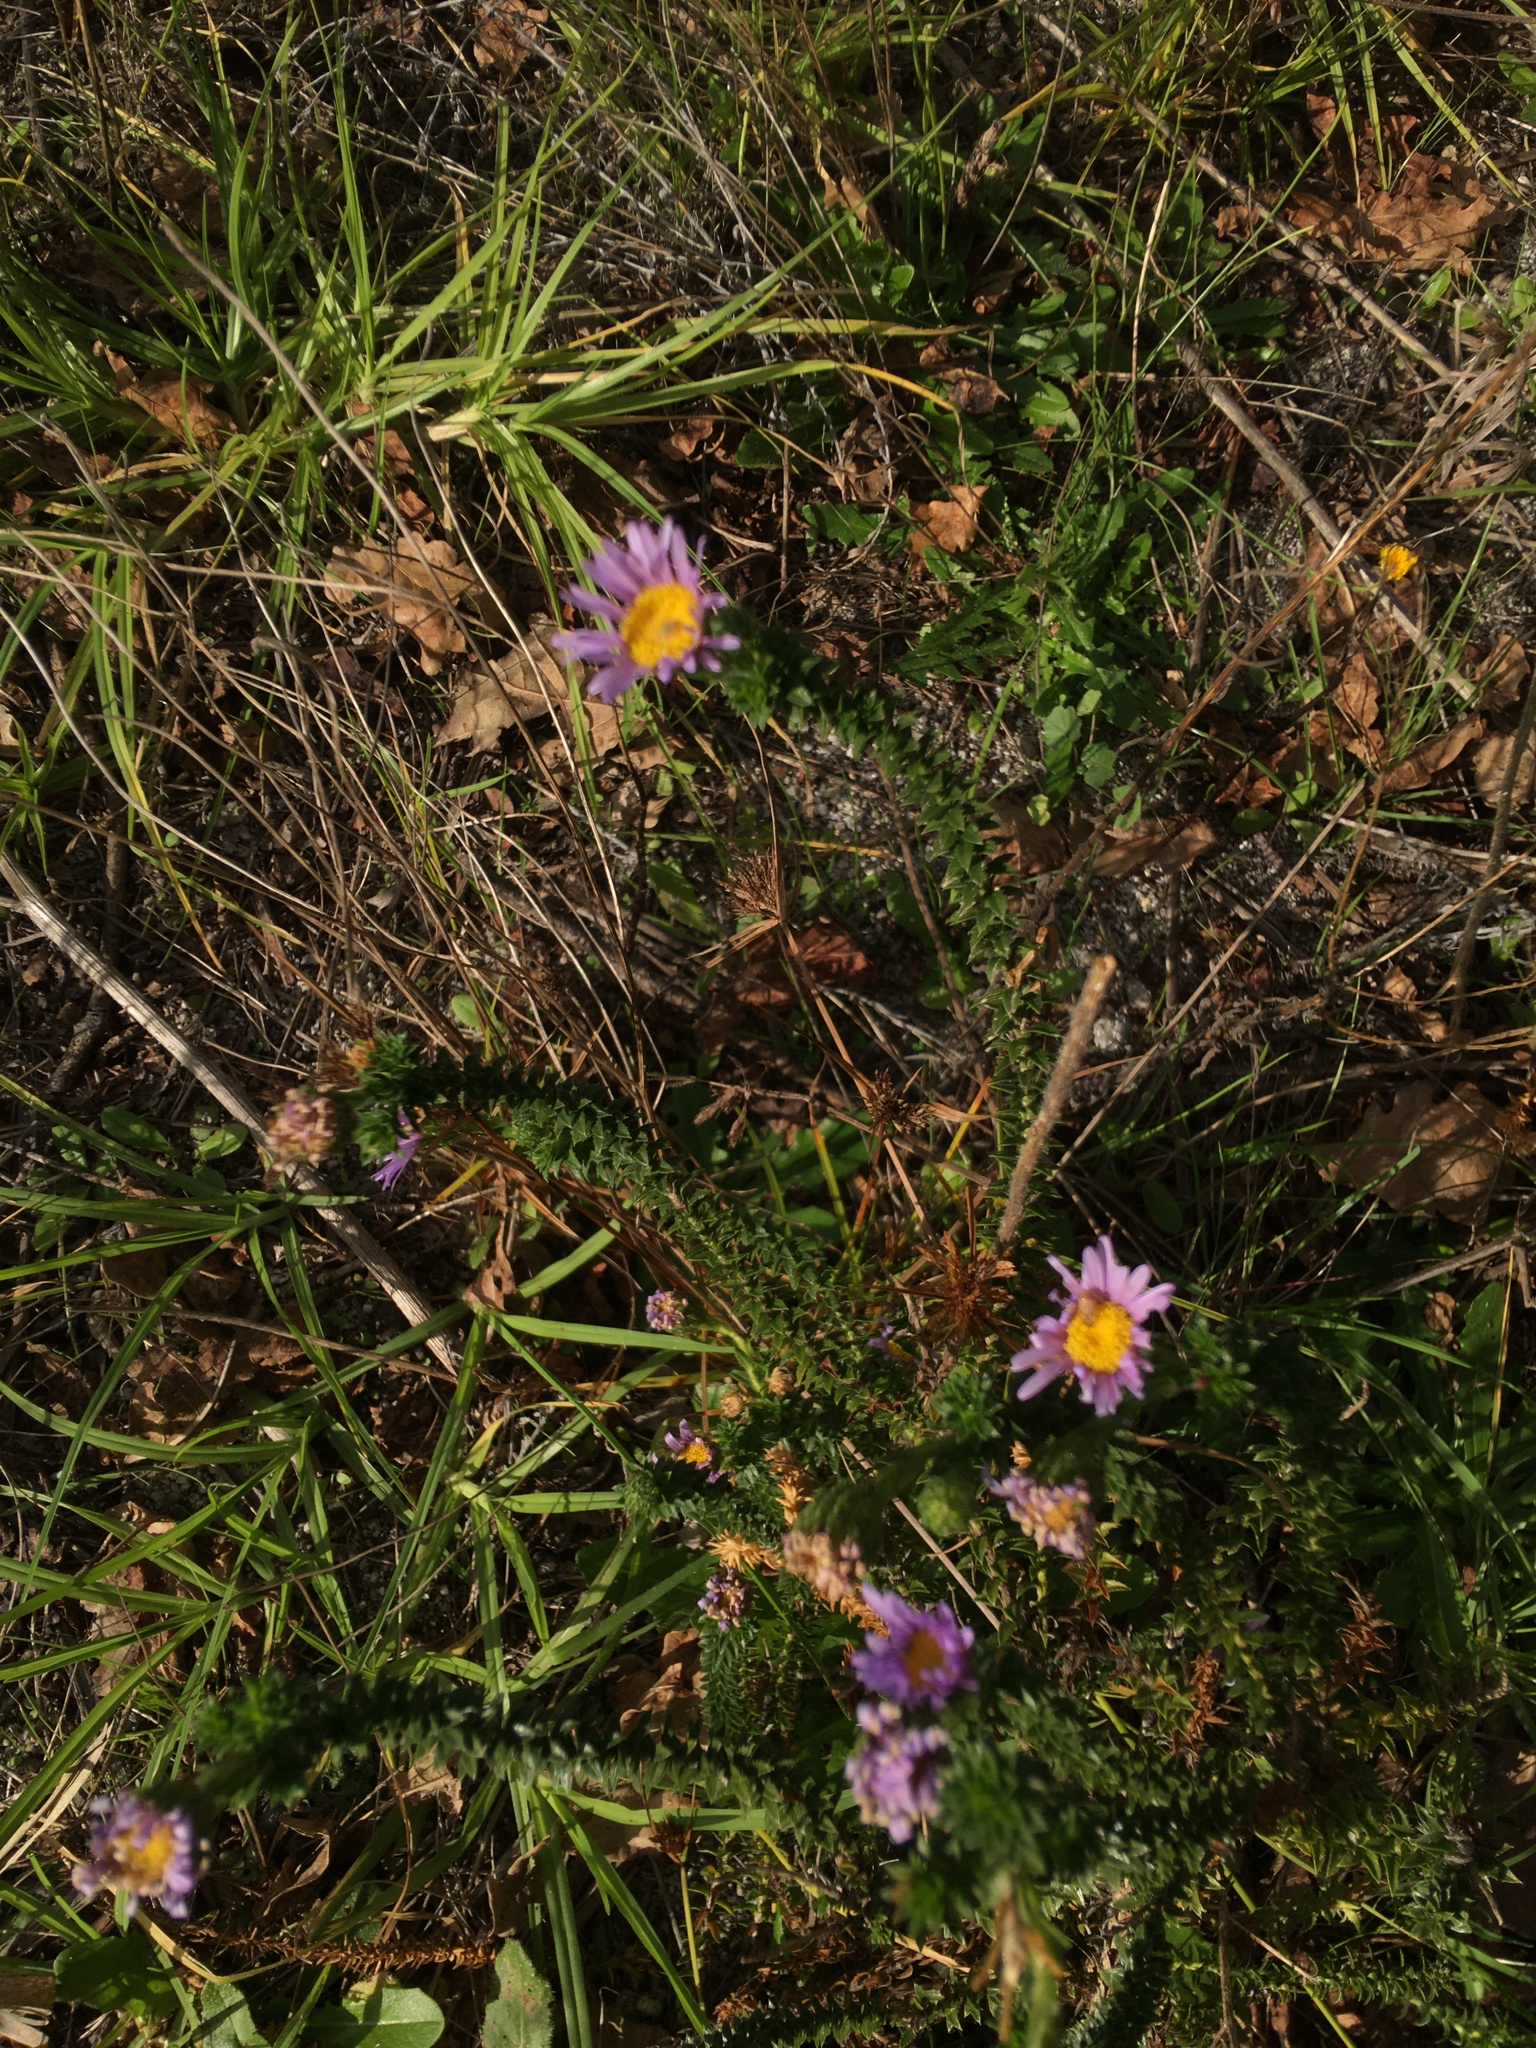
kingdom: Plantae
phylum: Tracheophyta
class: Magnoliopsida
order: Asterales
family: Asteraceae
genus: Felicia
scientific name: Felicia echinata
